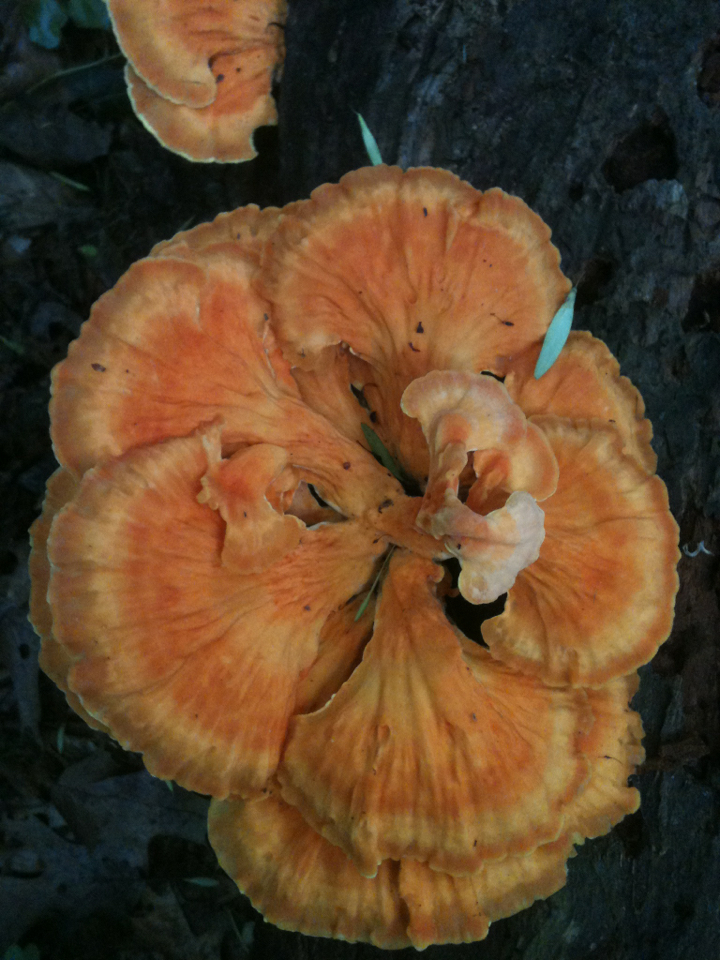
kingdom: Fungi
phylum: Basidiomycota
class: Agaricomycetes
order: Polyporales
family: Laetiporaceae
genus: Laetiporus
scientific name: Laetiporus sulphureus
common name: Chicken of the woods
